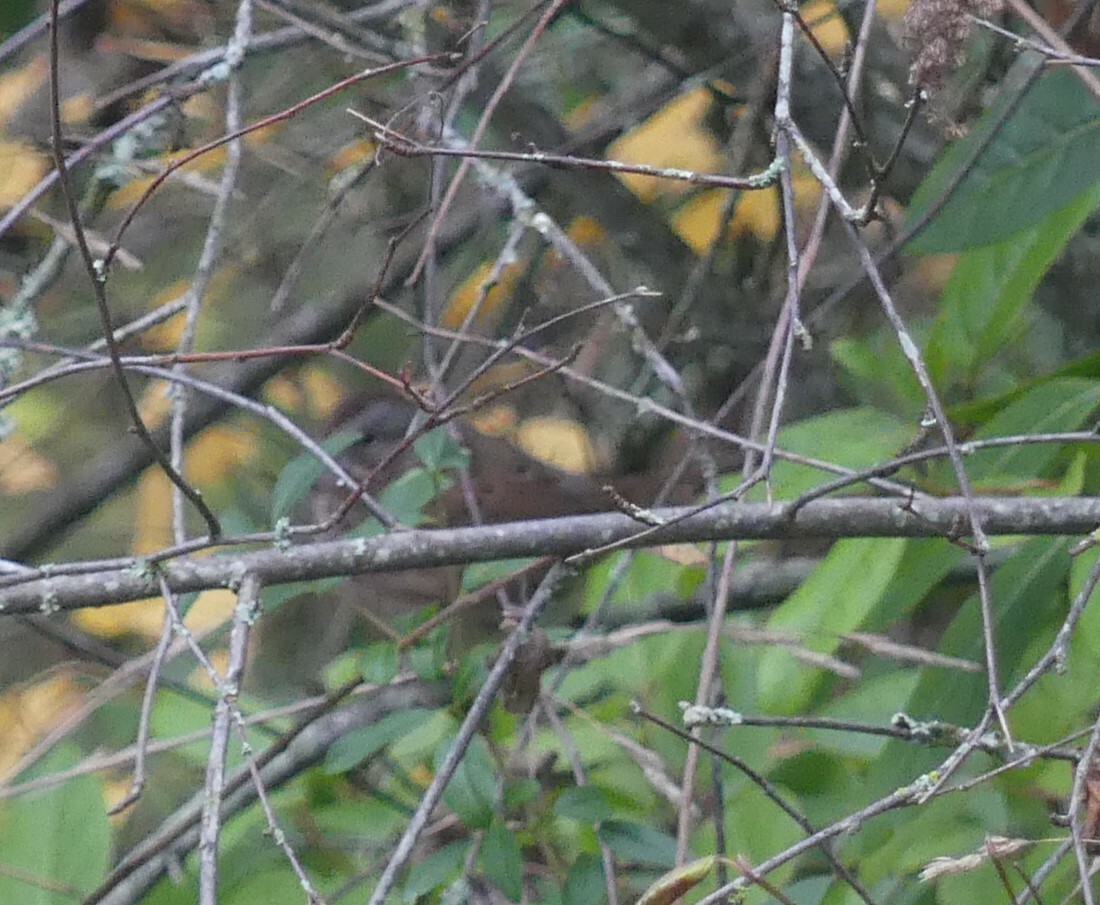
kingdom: Animalia
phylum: Chordata
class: Aves
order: Passeriformes
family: Passerellidae
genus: Melospiza
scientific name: Melospiza melodia
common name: Song sparrow
